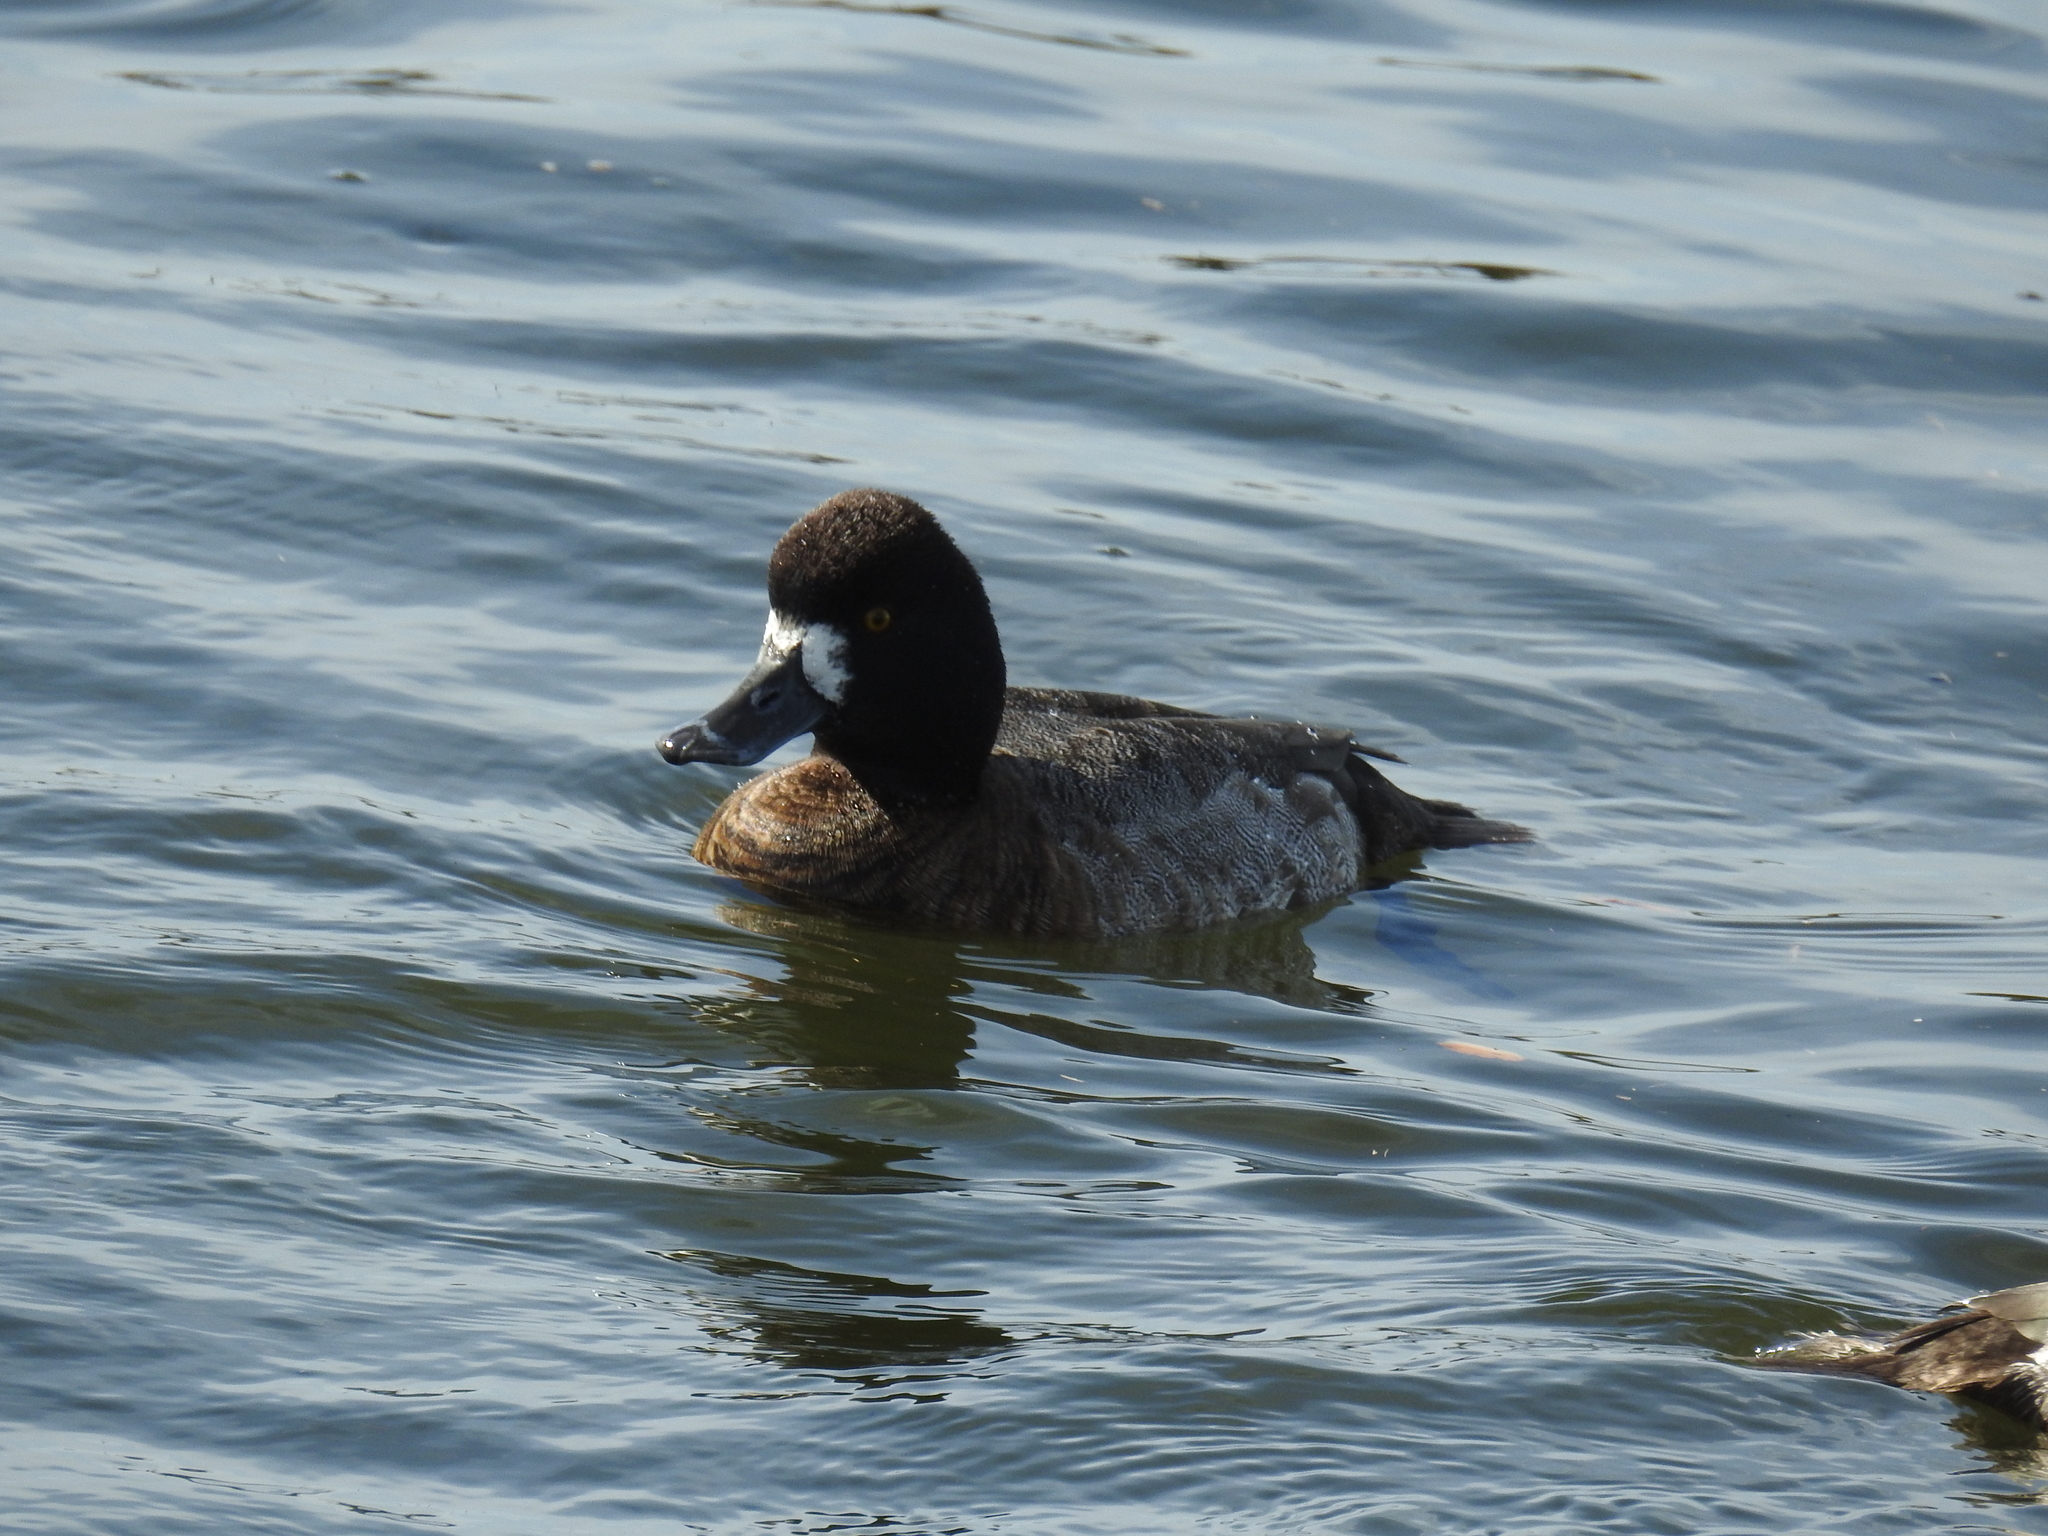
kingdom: Animalia
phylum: Chordata
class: Aves
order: Anseriformes
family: Anatidae
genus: Aythya
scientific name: Aythya affinis
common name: Lesser scaup
